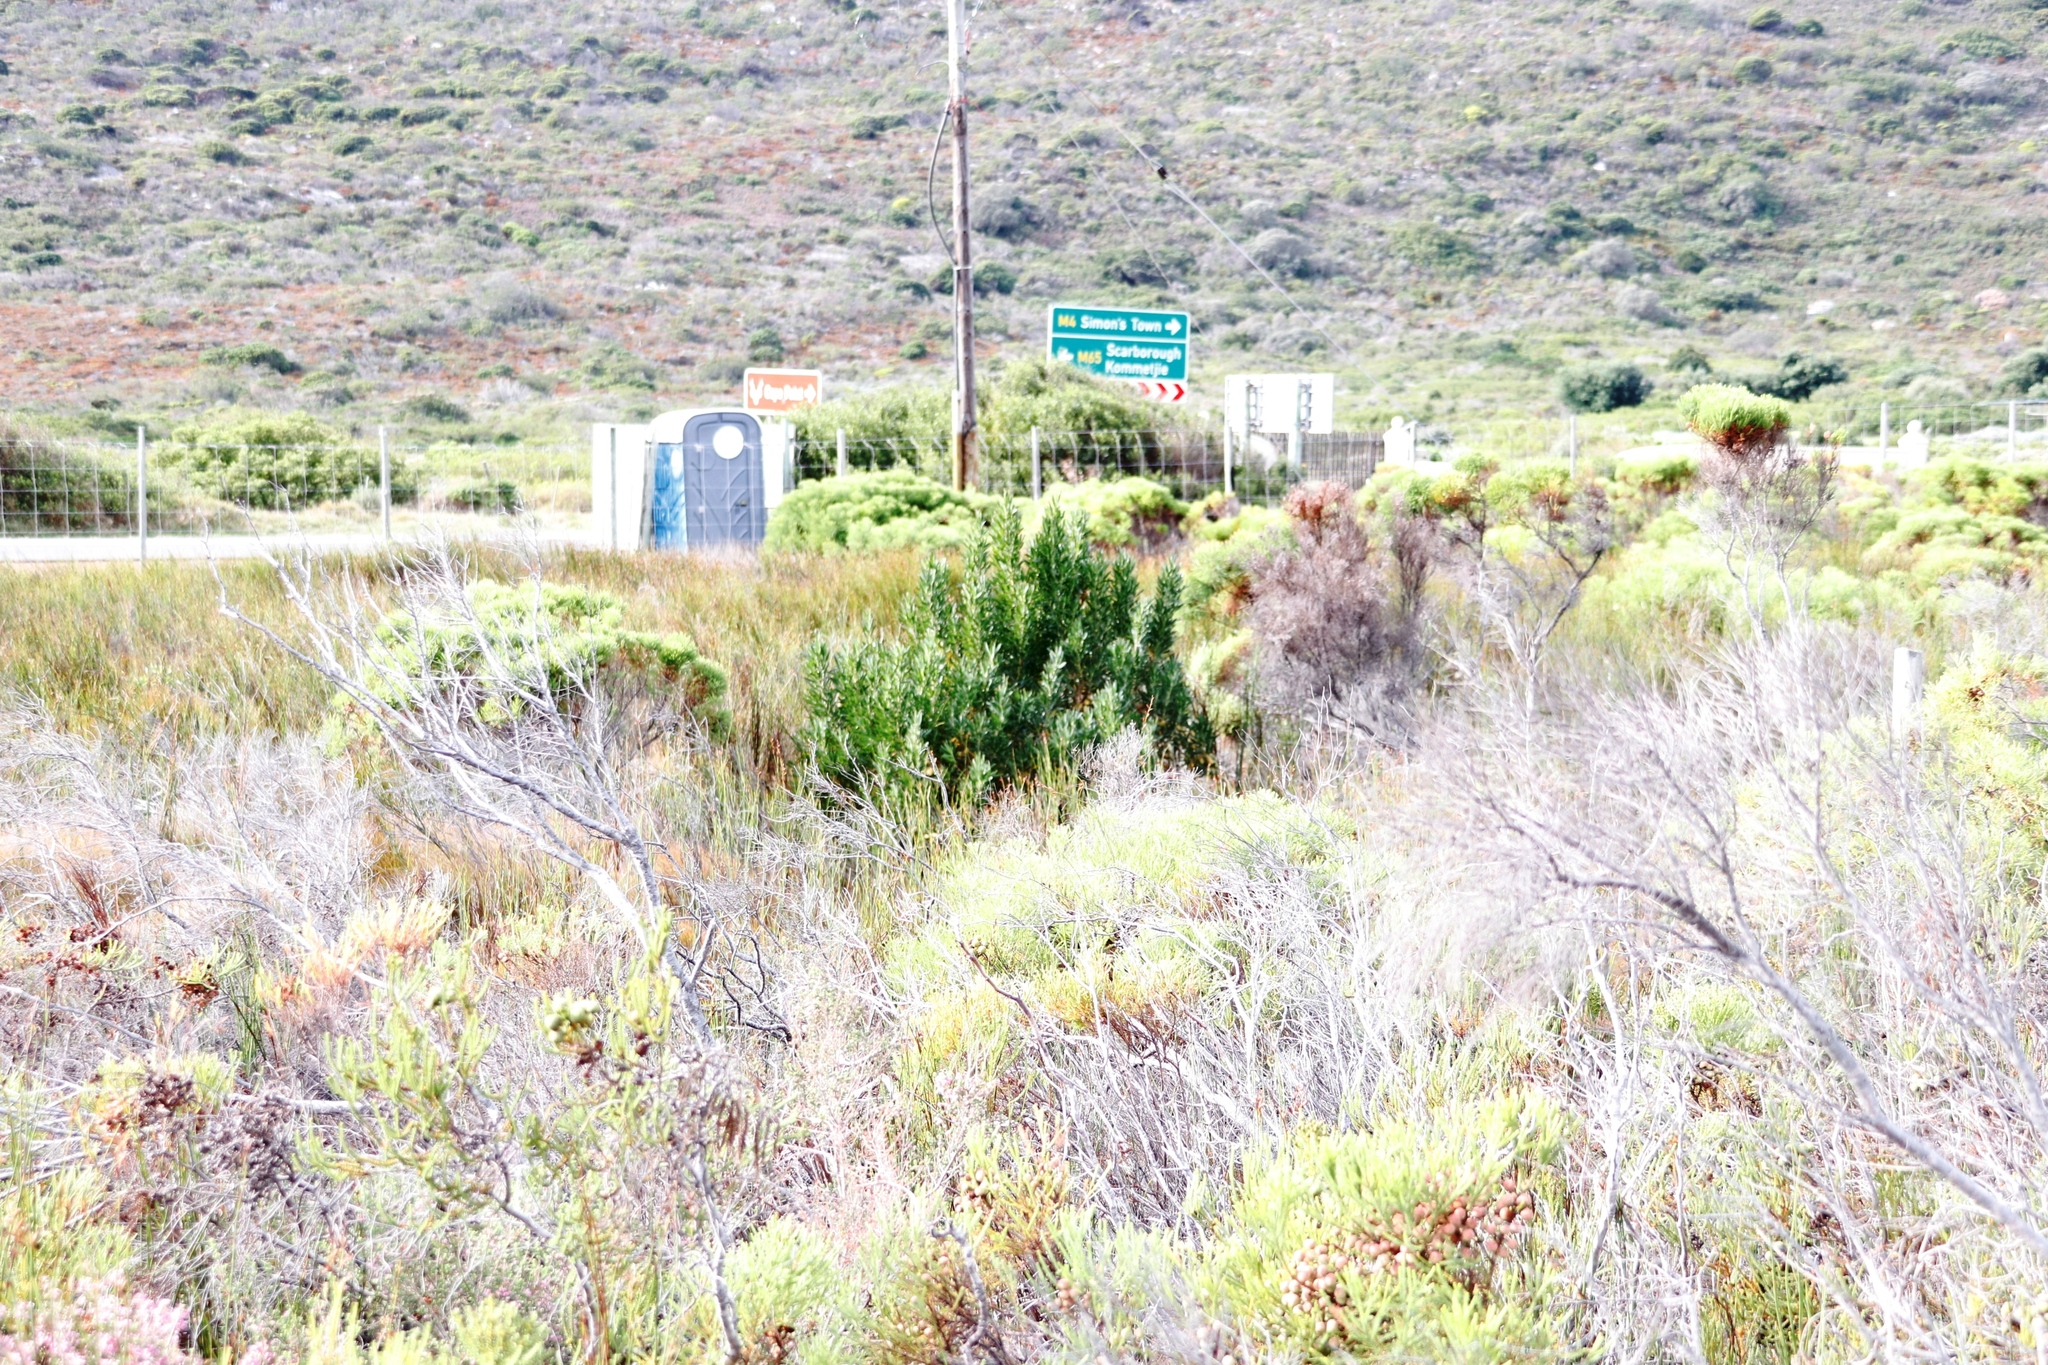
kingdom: Plantae
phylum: Tracheophyta
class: Magnoliopsida
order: Proteales
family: Proteaceae
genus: Leucadendron
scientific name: Leucadendron macowanii
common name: Acacia-leaf conebush
